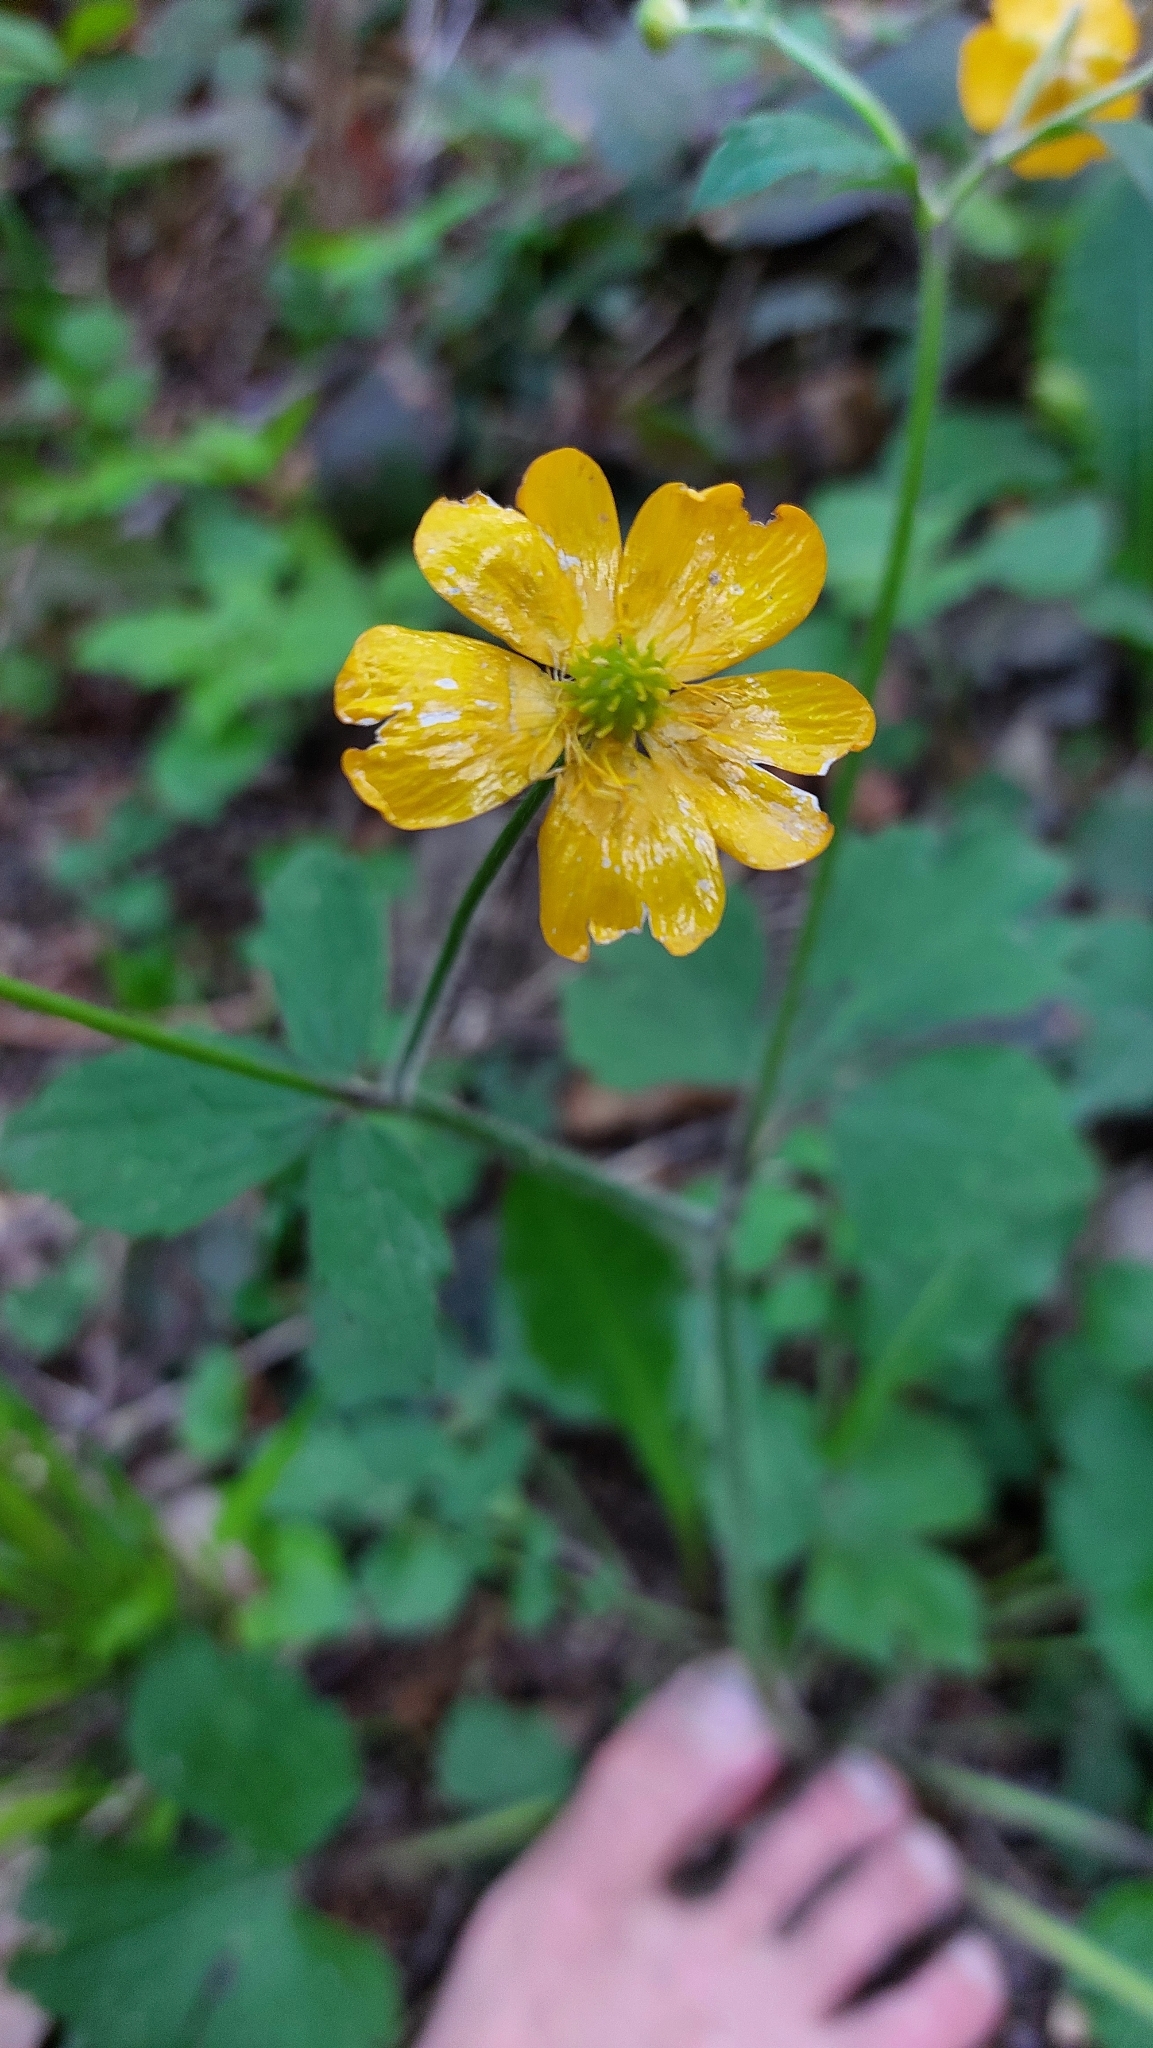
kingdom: Plantae
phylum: Tracheophyta
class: Magnoliopsida
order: Ranunculales
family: Ranunculaceae
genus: Ranunculus
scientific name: Ranunculus lanuginosus
